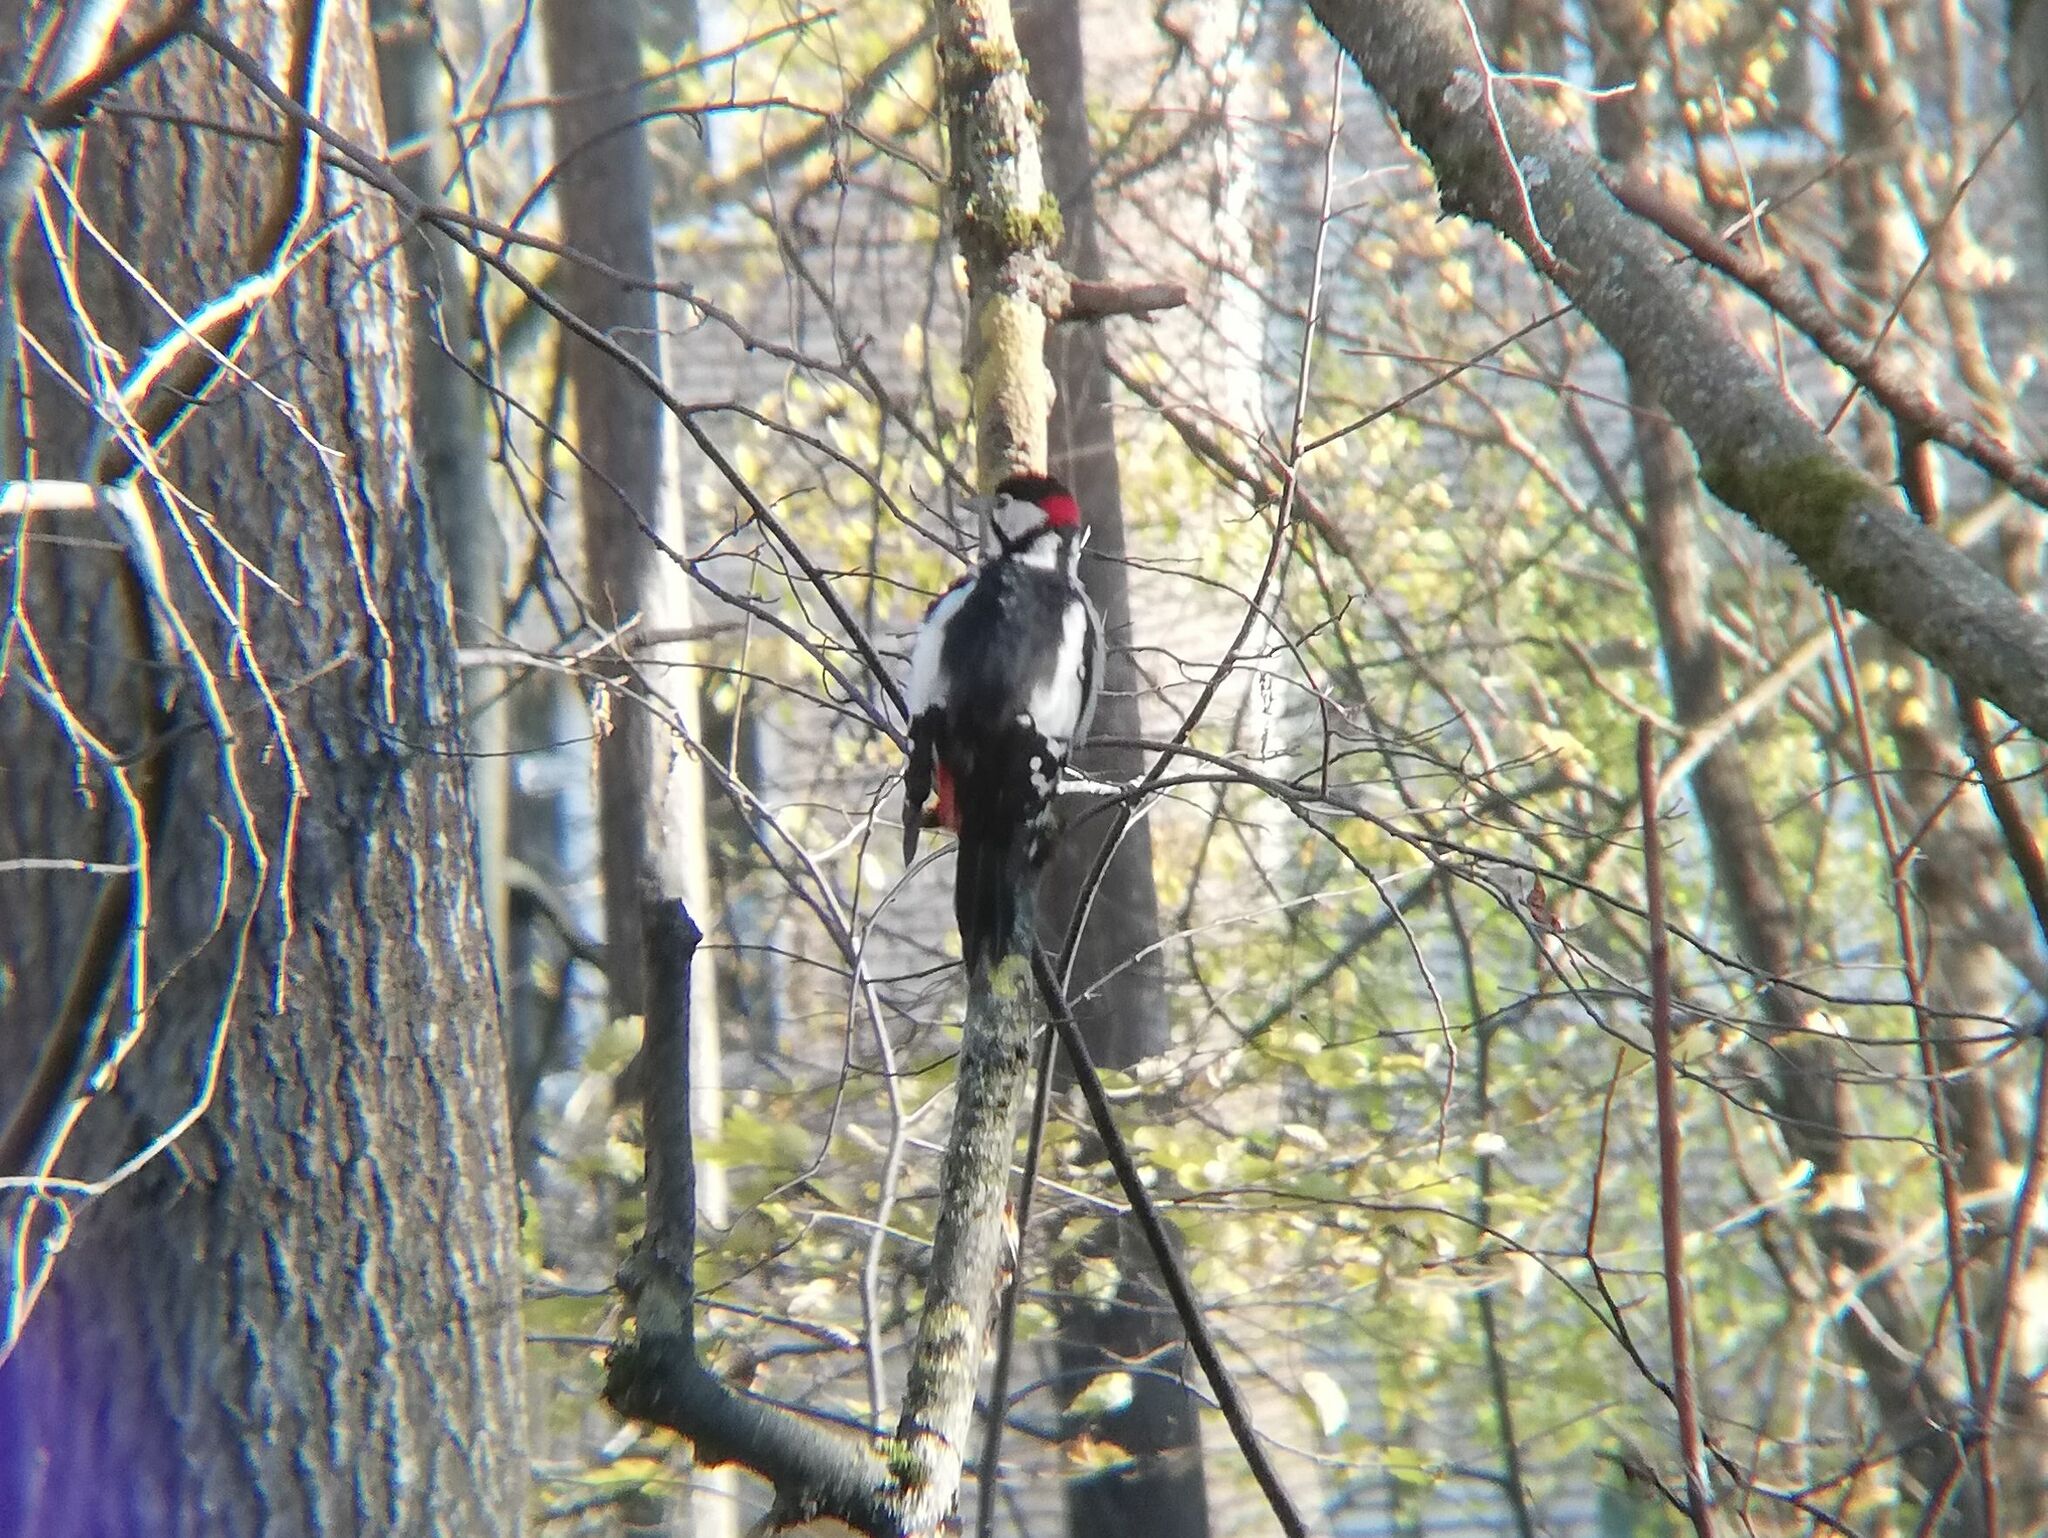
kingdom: Animalia
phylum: Chordata
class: Aves
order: Piciformes
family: Picidae
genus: Dendrocopos
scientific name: Dendrocopos major
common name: Great spotted woodpecker
